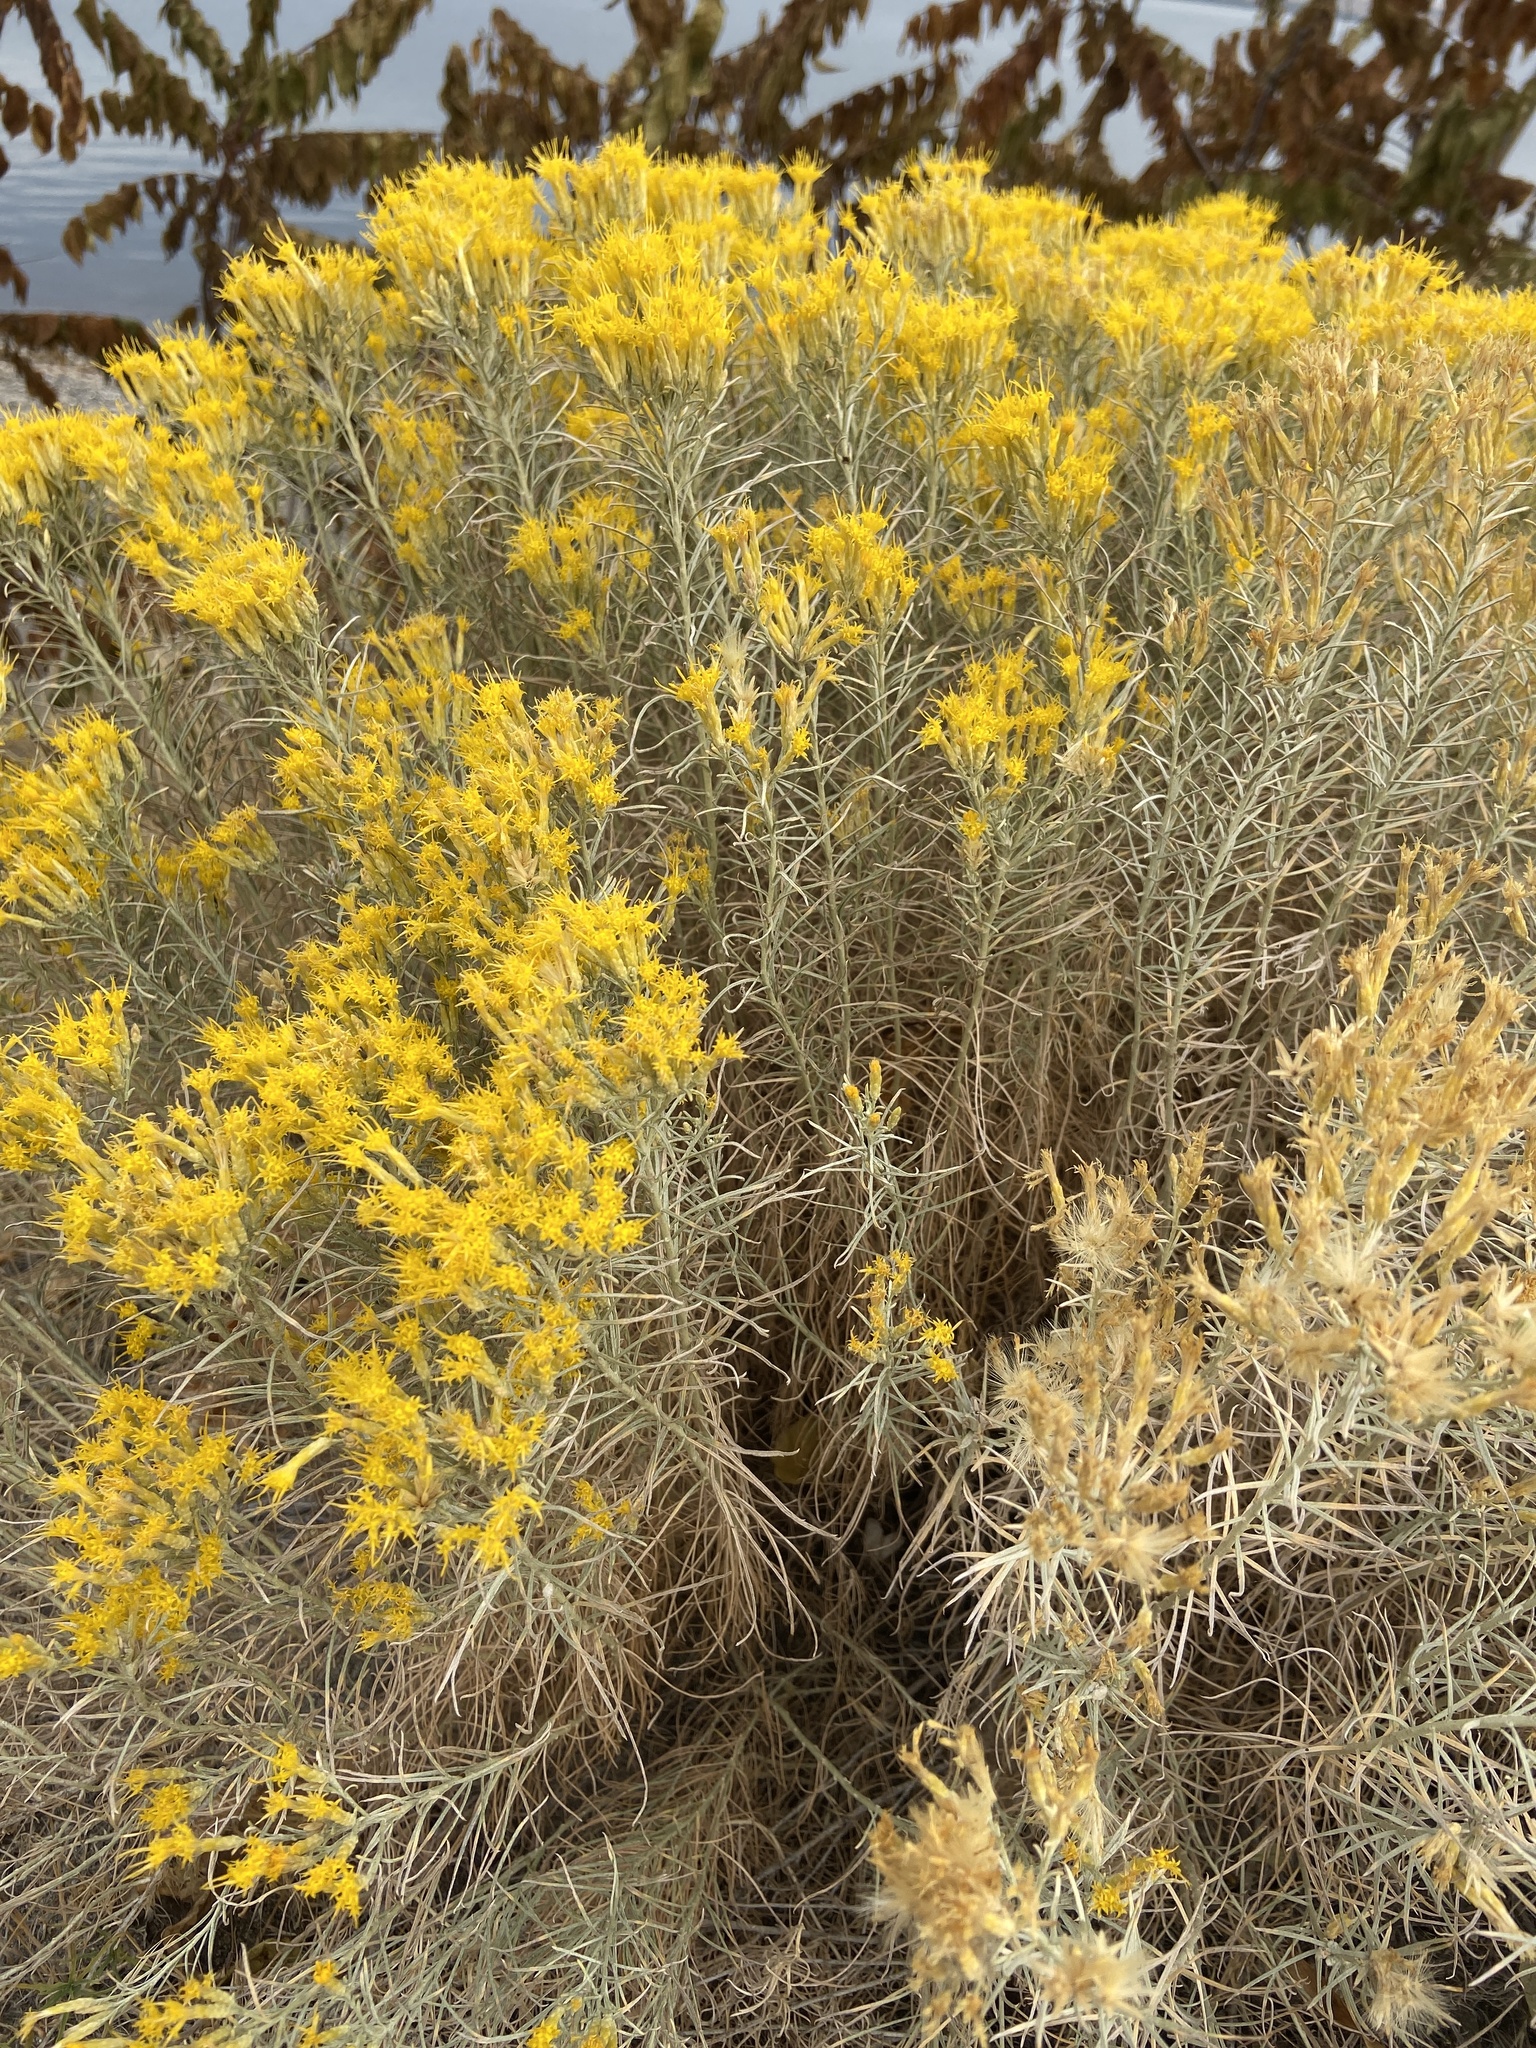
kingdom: Plantae
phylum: Tracheophyta
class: Magnoliopsida
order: Asterales
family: Asteraceae
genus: Ericameria
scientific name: Ericameria nauseosa
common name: Rubber rabbitbrush
